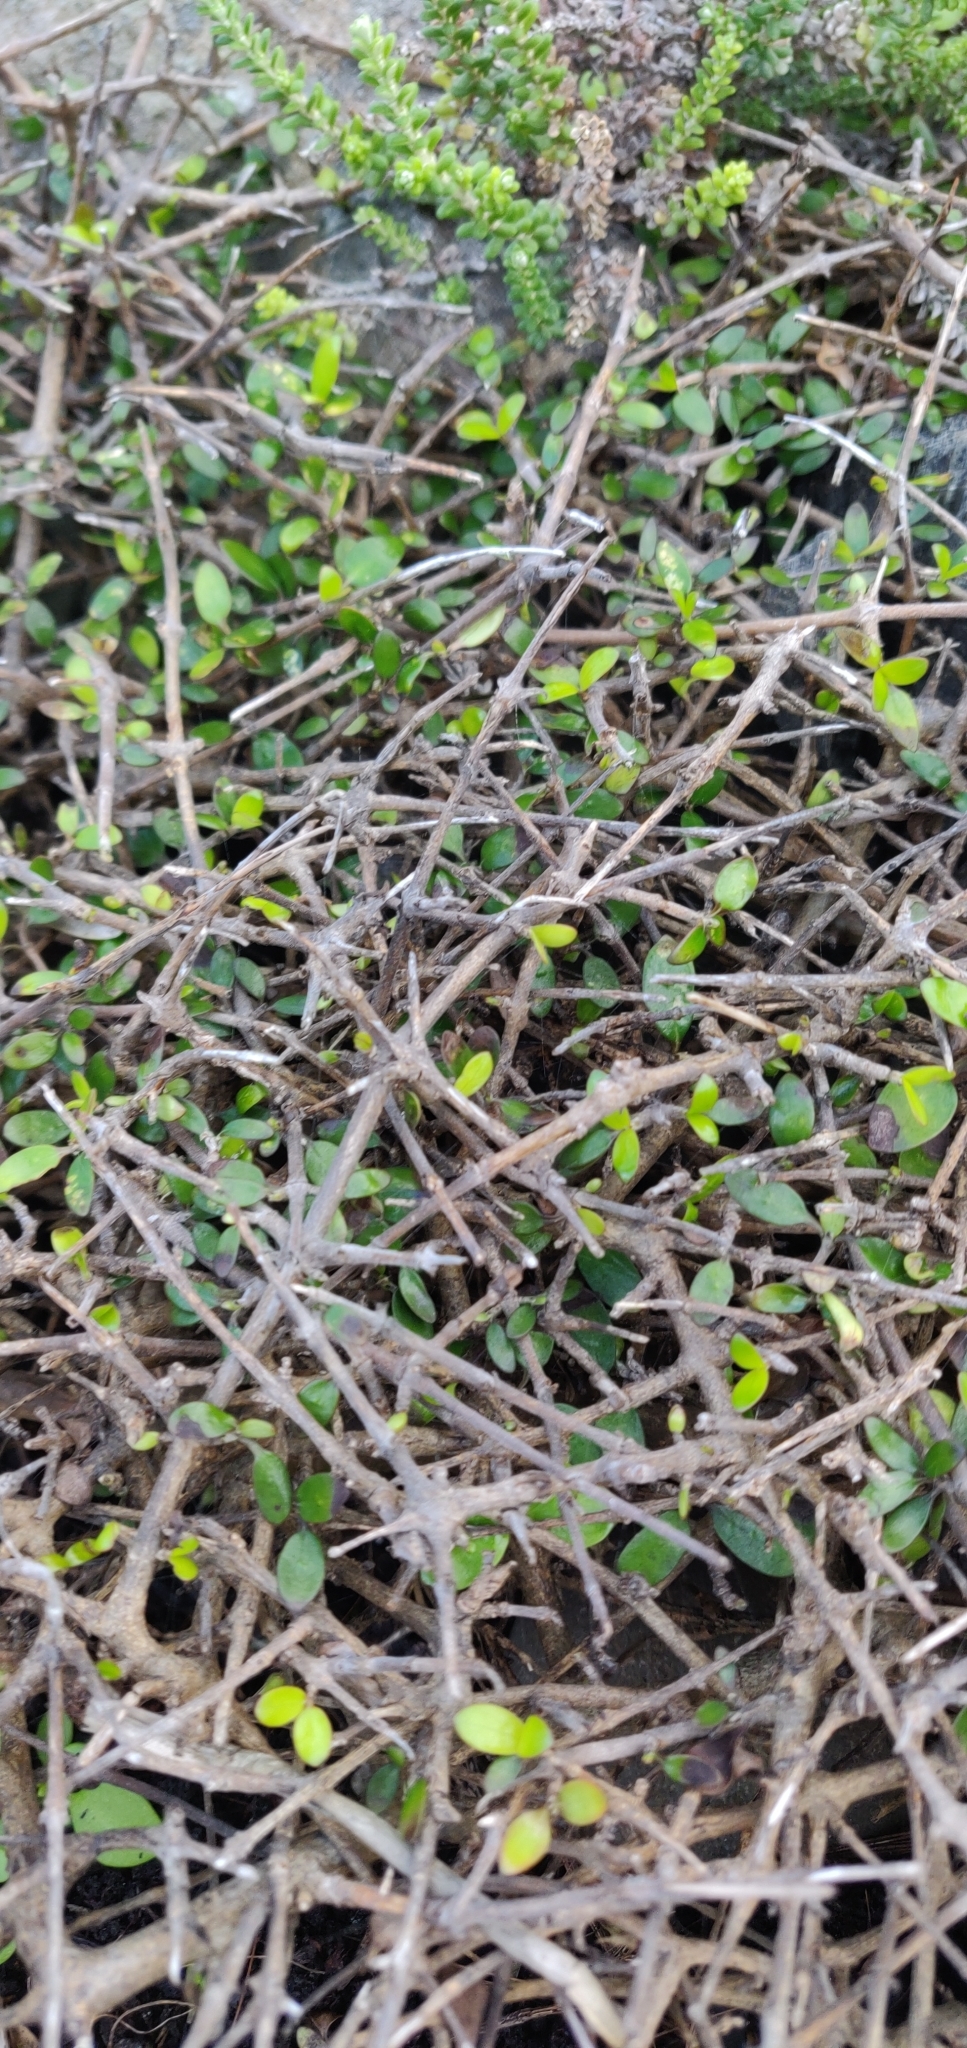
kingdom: Plantae
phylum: Tracheophyta
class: Magnoliopsida
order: Gentianales
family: Rubiaceae
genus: Coprosma
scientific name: Coprosma propinqua
